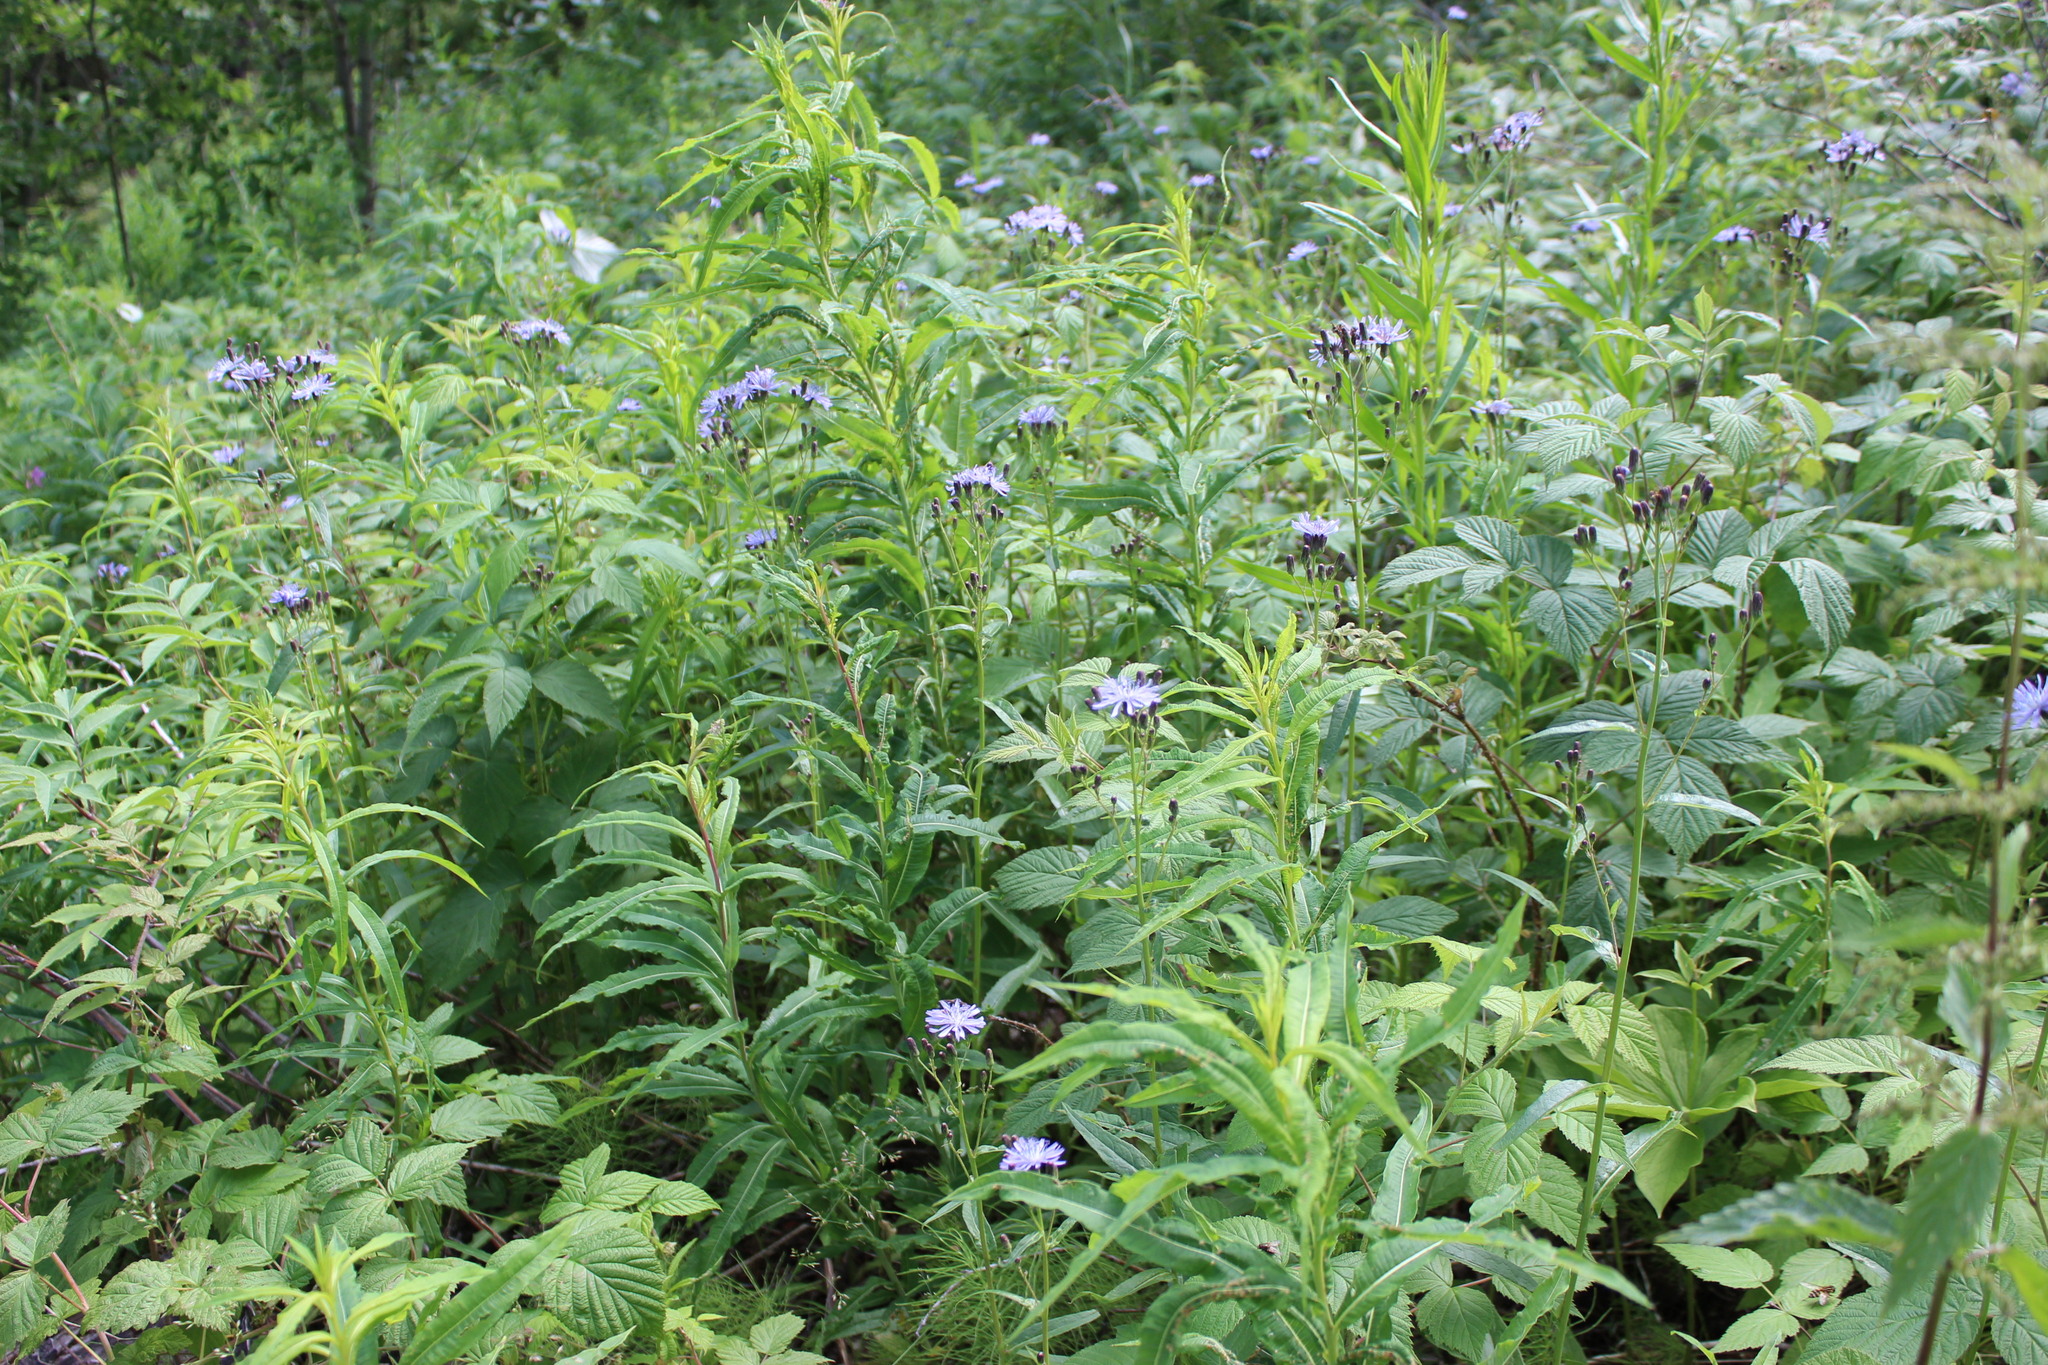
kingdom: Plantae
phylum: Tracheophyta
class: Magnoliopsida
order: Asterales
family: Asteraceae
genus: Lactuca
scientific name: Lactuca sibirica
